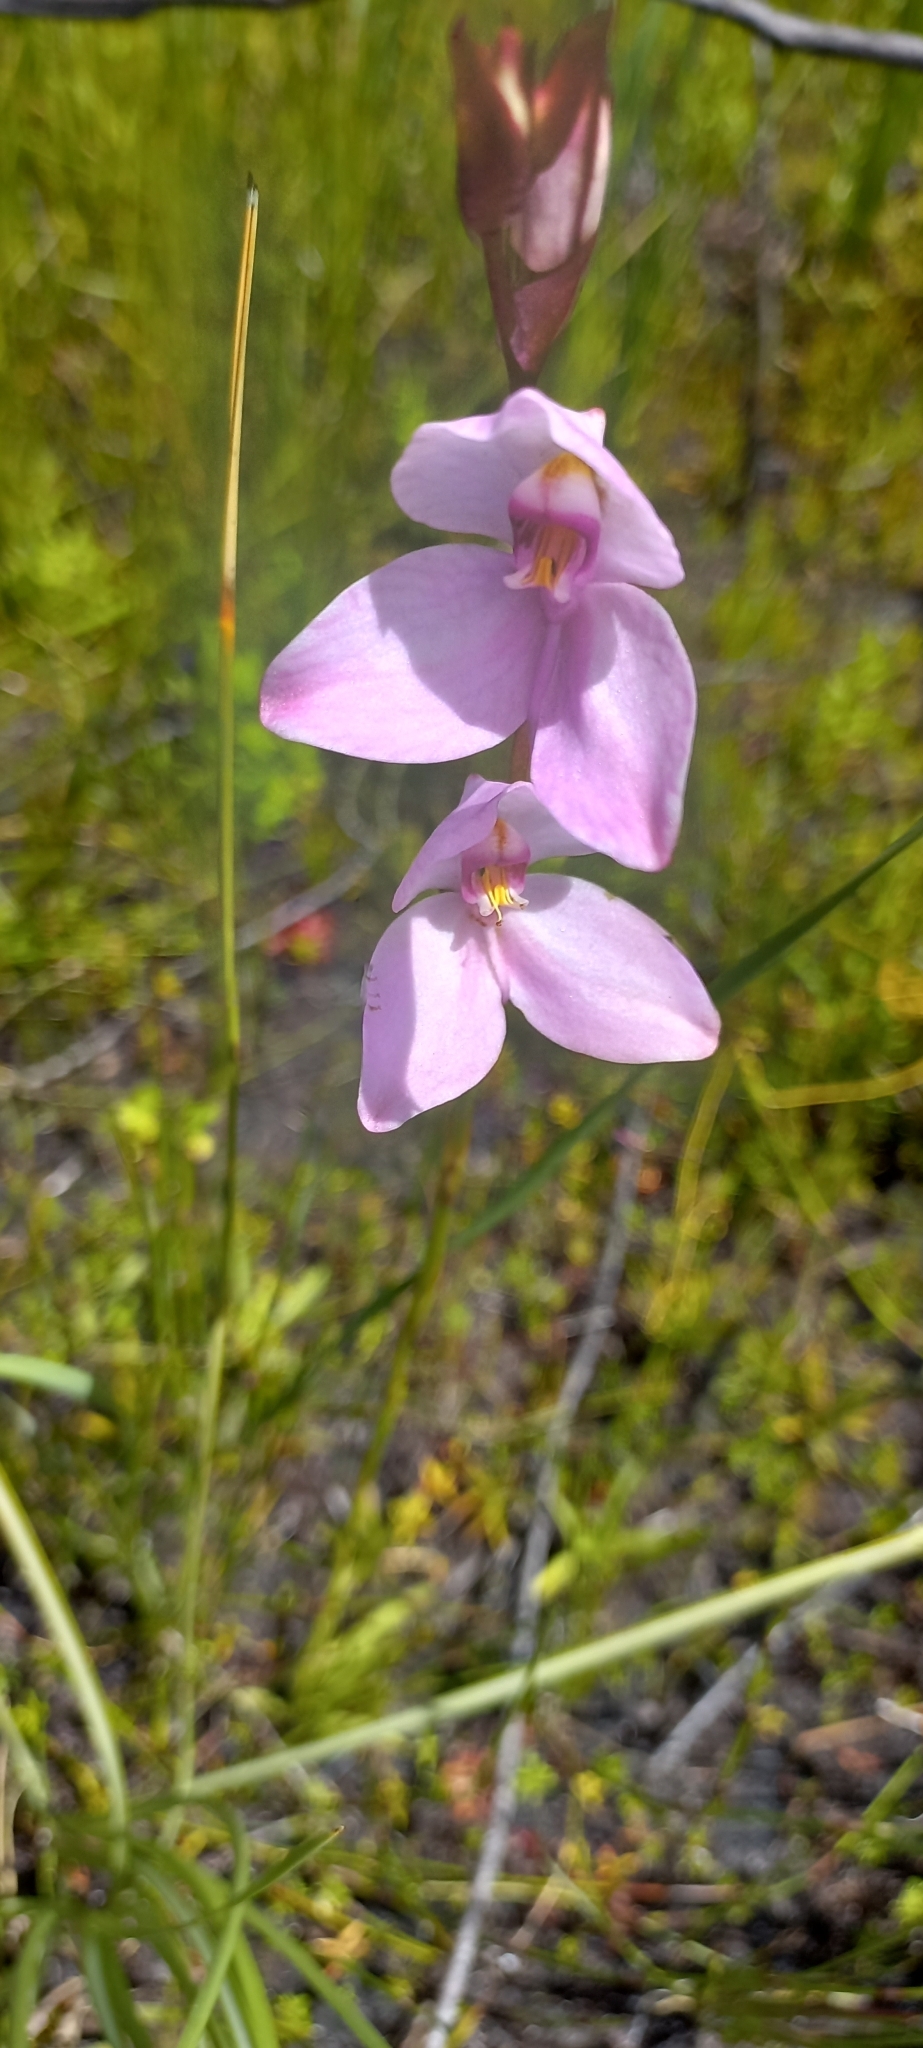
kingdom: Plantae
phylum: Tracheophyta
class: Liliopsida
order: Asparagales
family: Orchidaceae
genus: Disa
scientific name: Disa racemosa
